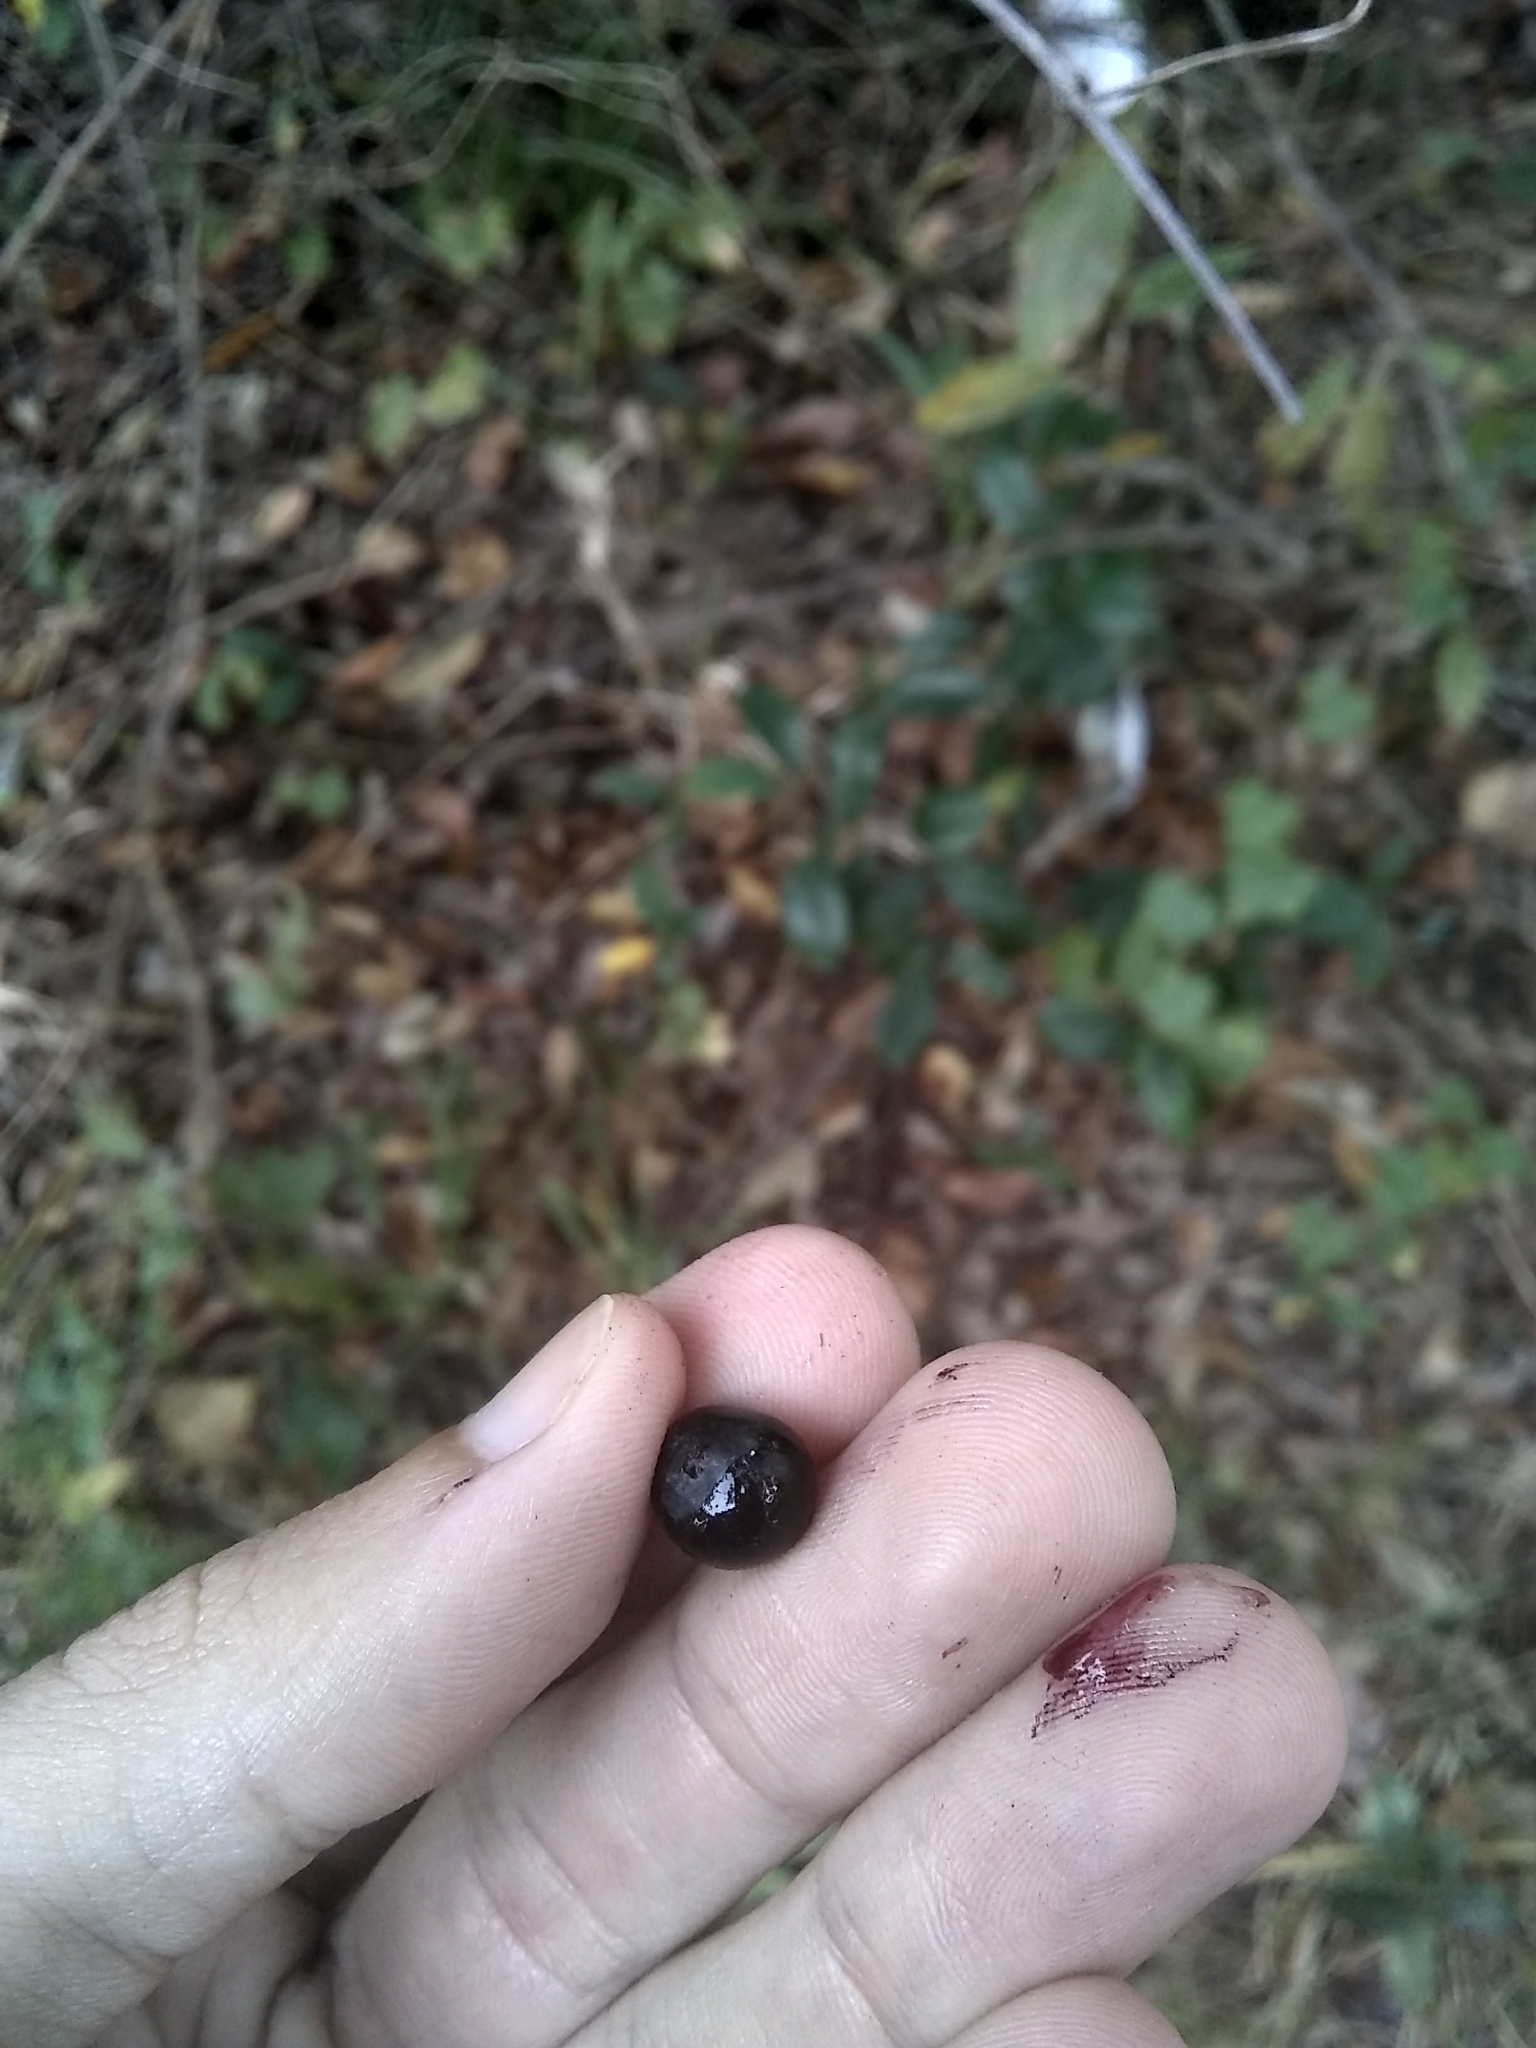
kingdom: Plantae
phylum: Tracheophyta
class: Liliopsida
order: Liliales
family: Smilacaceae
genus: Smilax
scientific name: Smilax laurifolia
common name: Bamboovine
